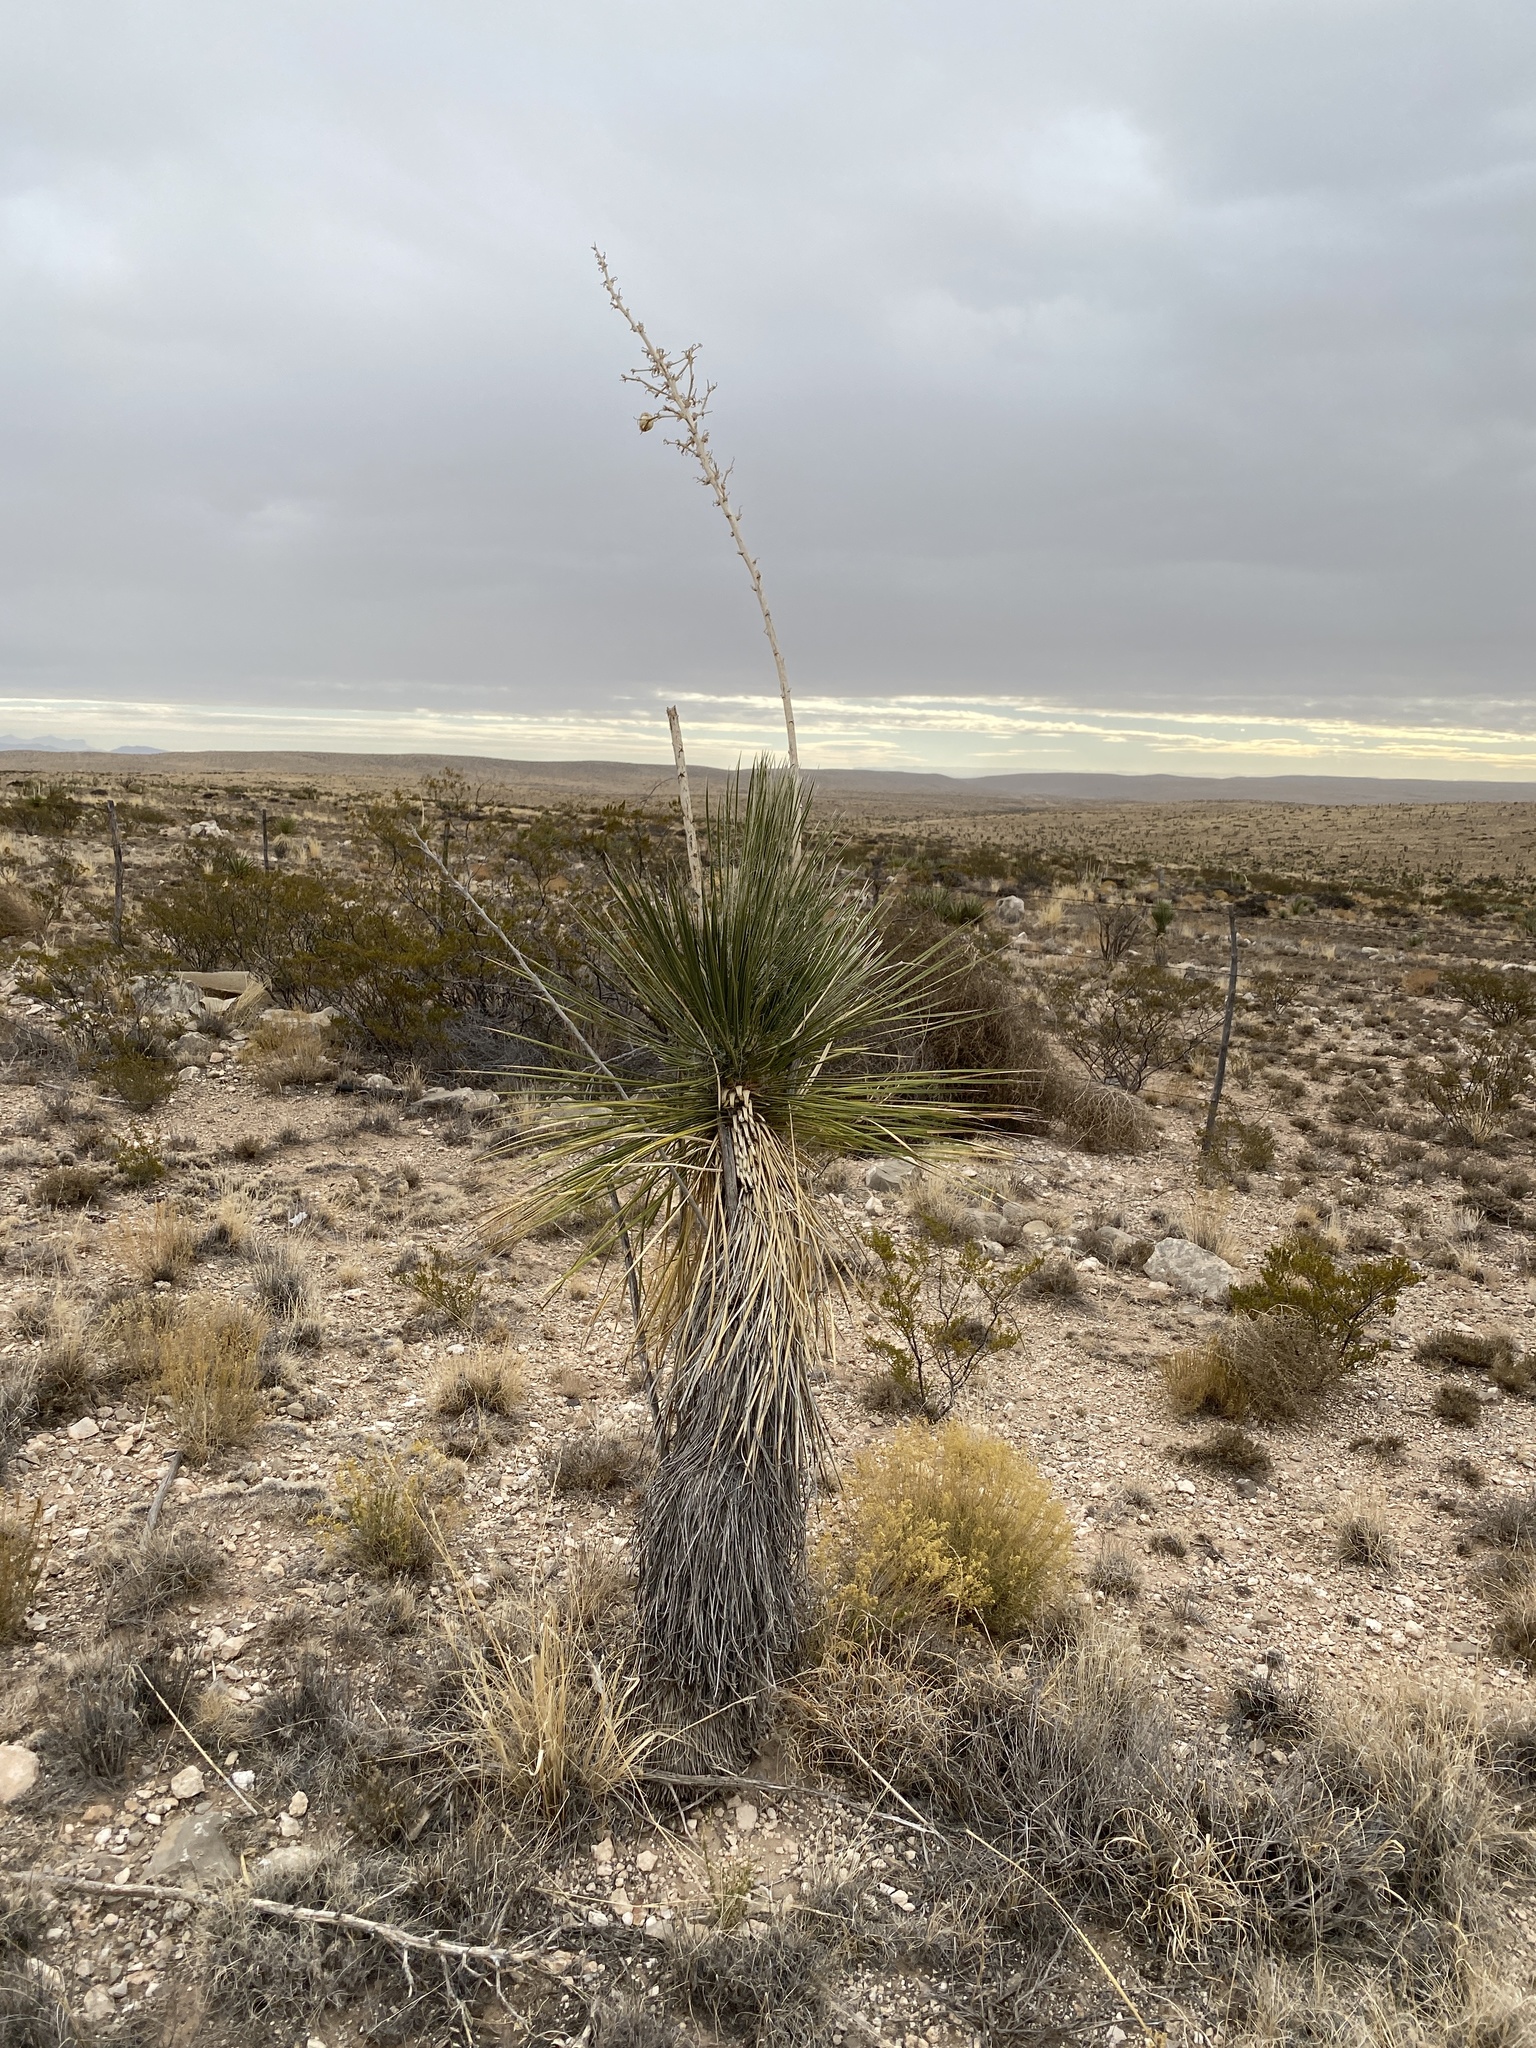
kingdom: Plantae
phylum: Tracheophyta
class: Liliopsida
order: Asparagales
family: Asparagaceae
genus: Yucca
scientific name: Yucca elata
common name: Palmella
